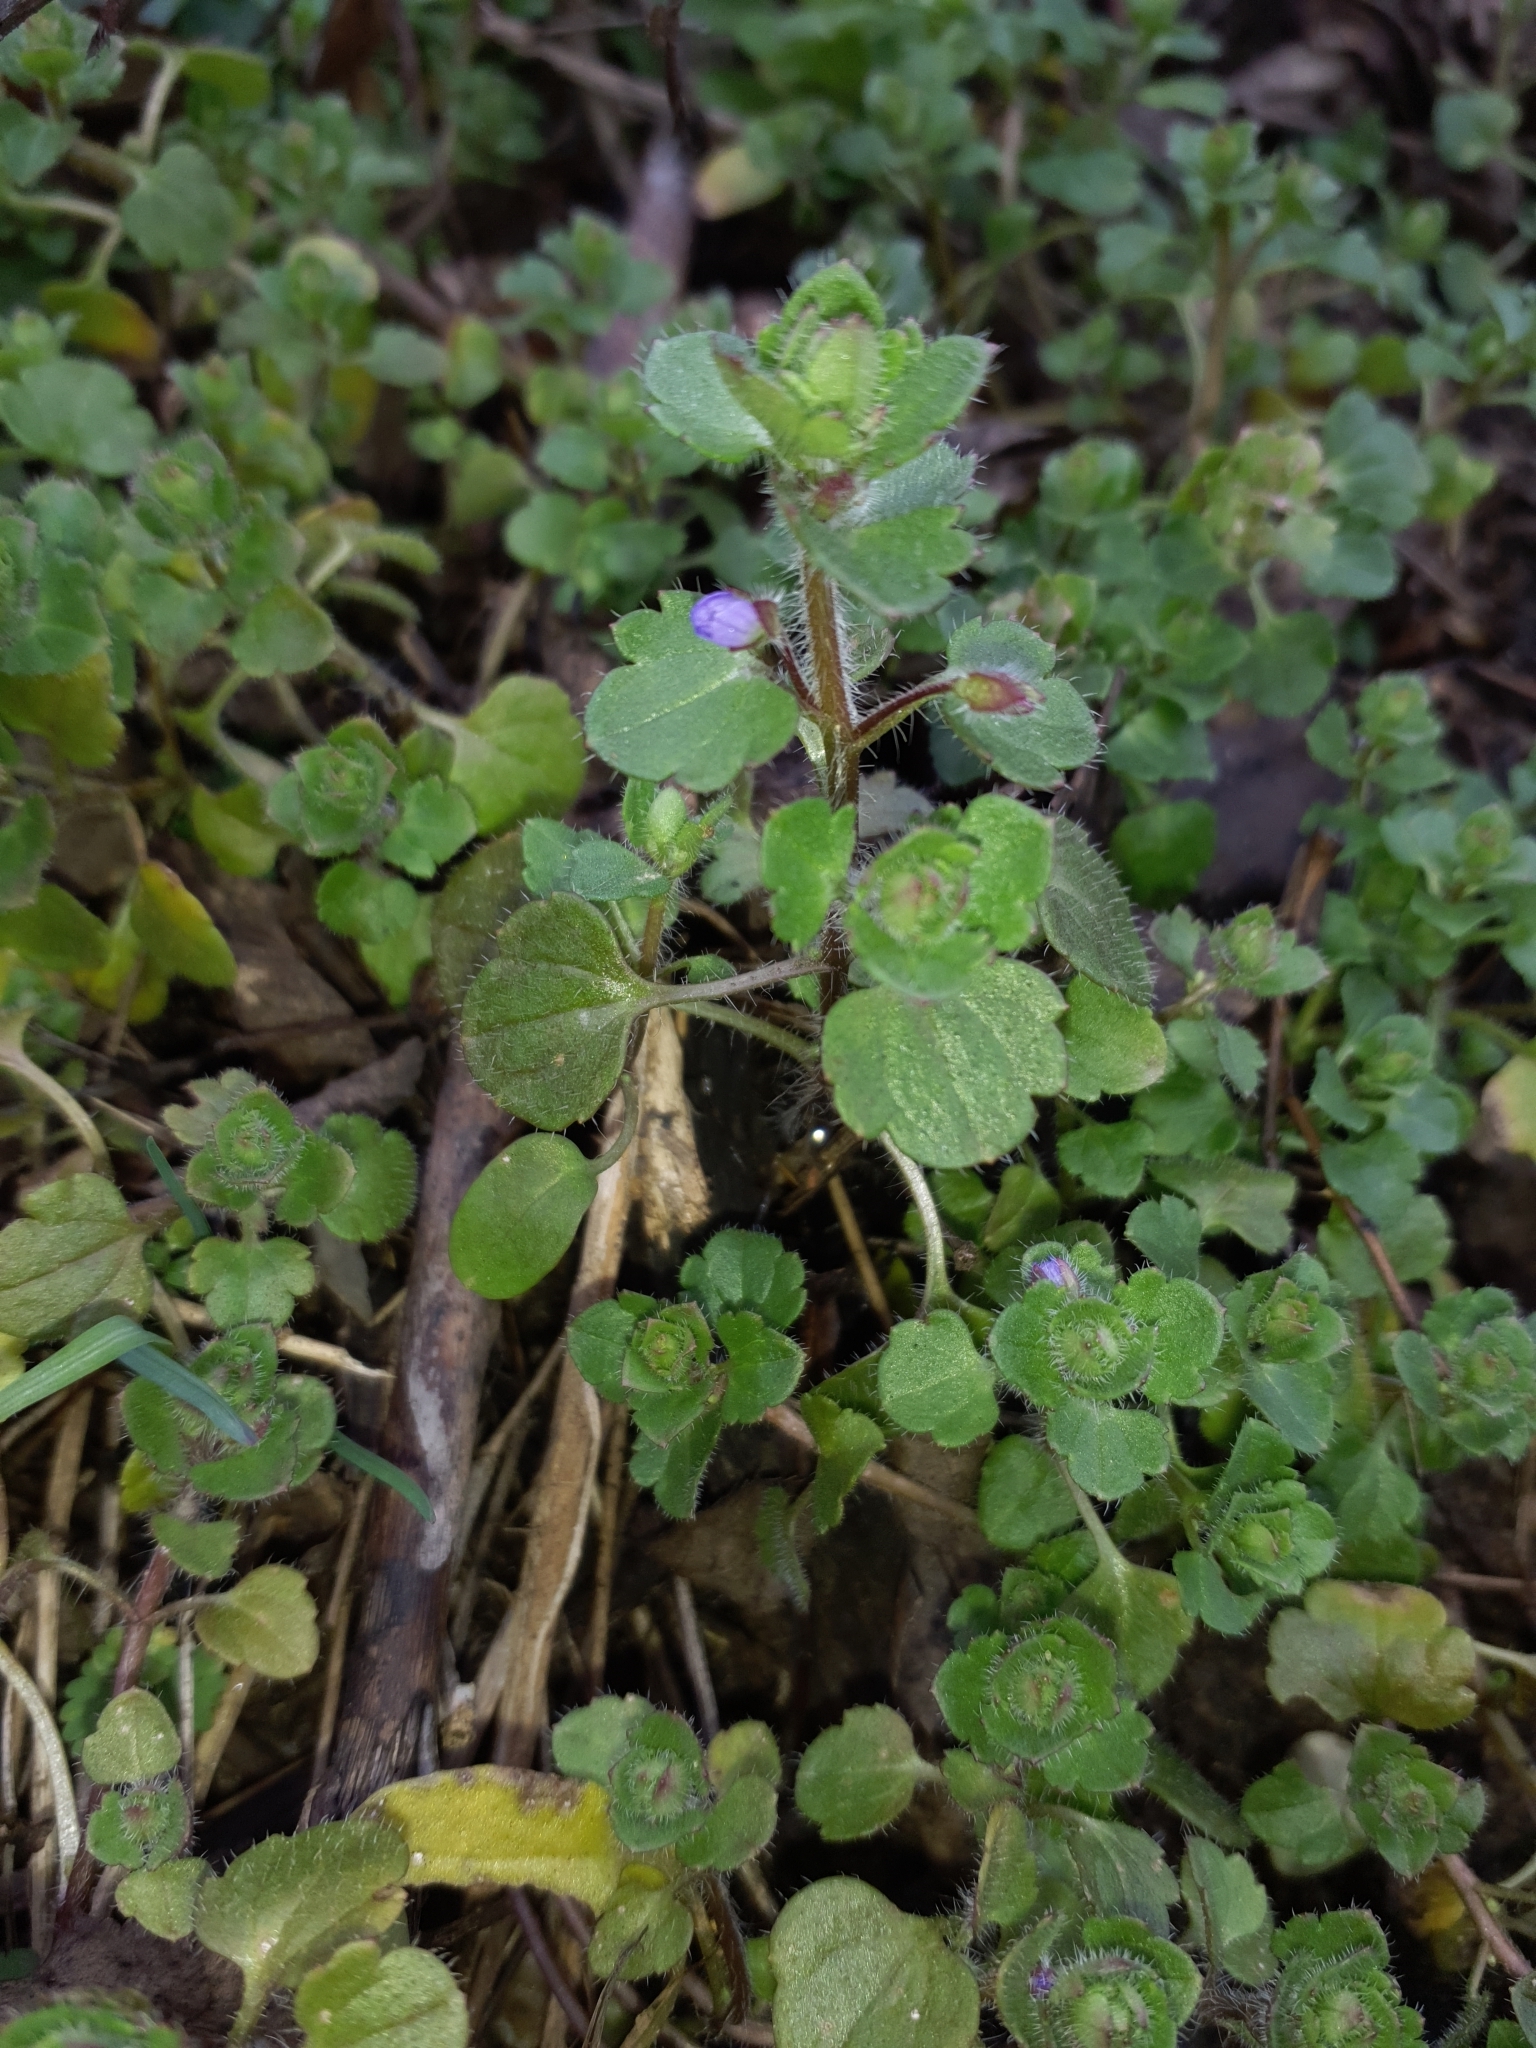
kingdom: Plantae
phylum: Tracheophyta
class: Magnoliopsida
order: Lamiales
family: Plantaginaceae
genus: Veronica
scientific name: Veronica sublobata
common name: False ivy-leaved speedwell
